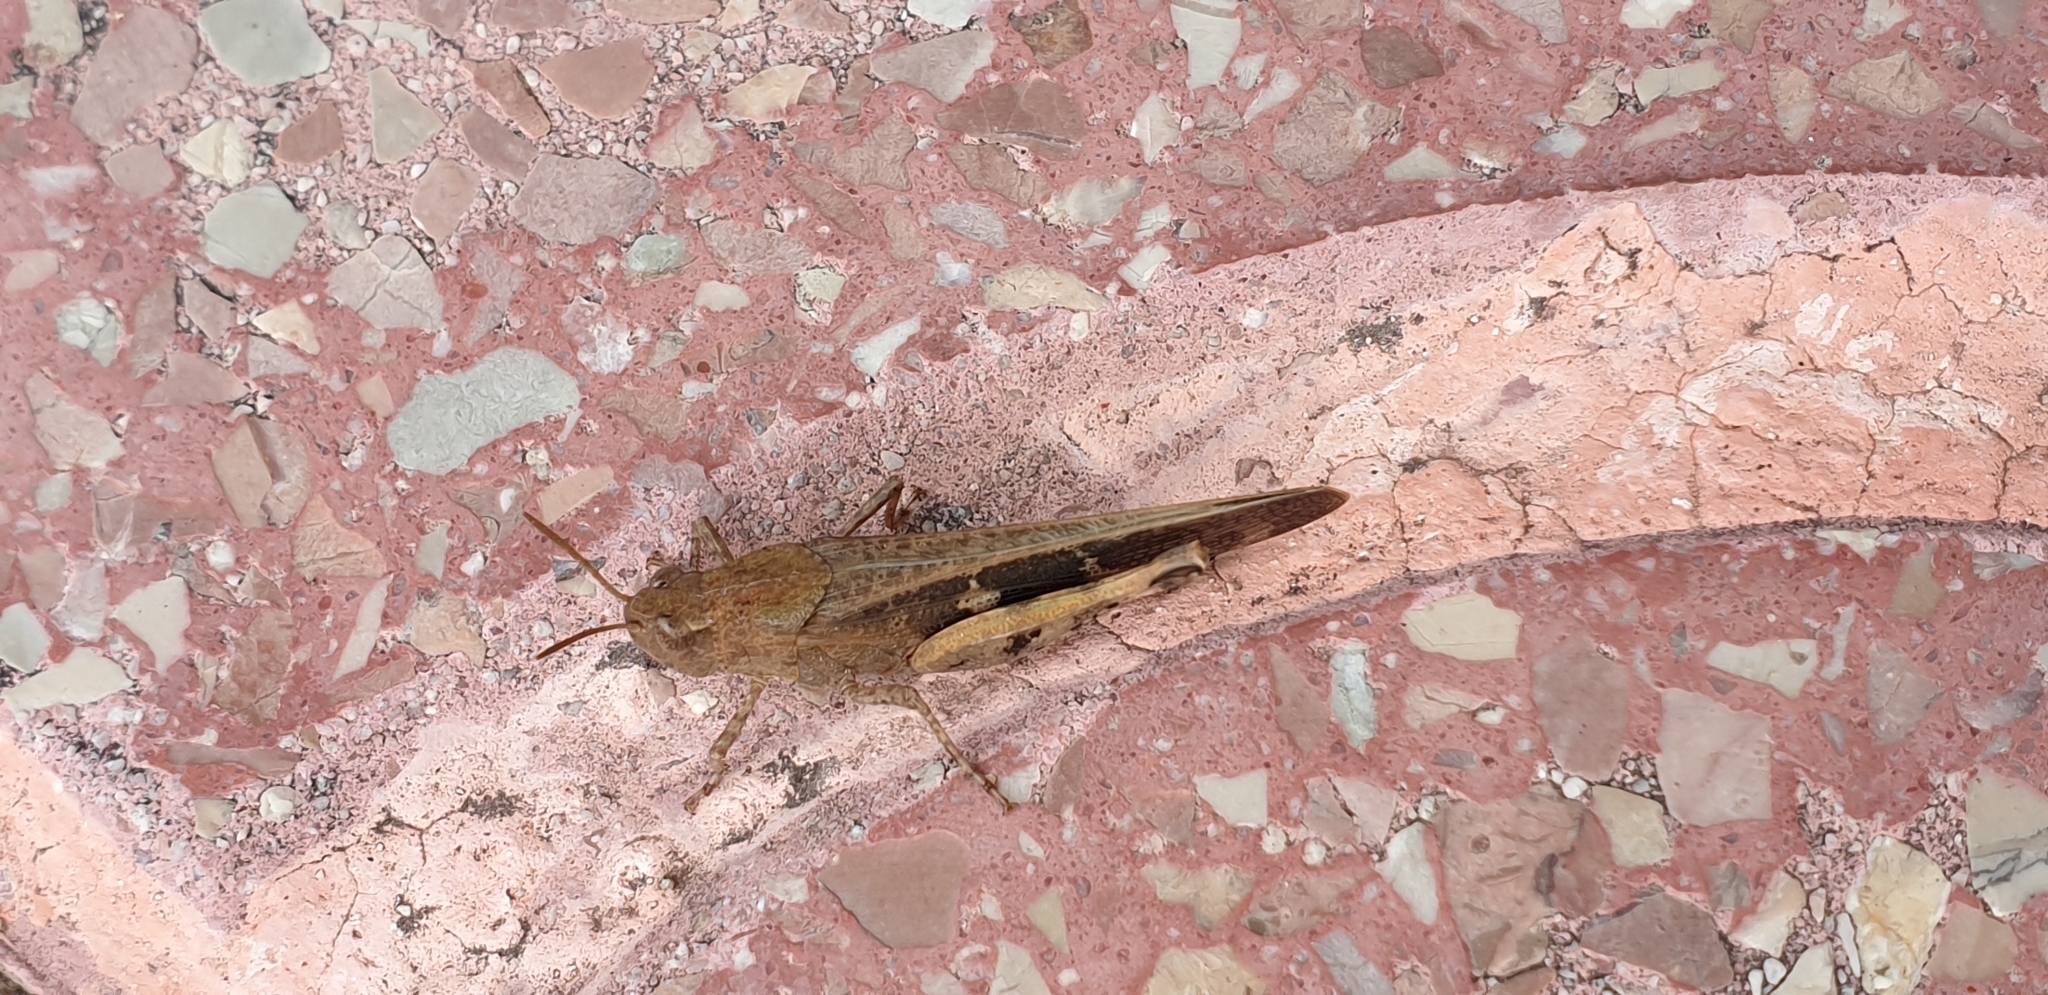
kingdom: Animalia
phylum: Arthropoda
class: Insecta
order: Orthoptera
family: Acrididae
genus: Aiolopus
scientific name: Aiolopus strepens
